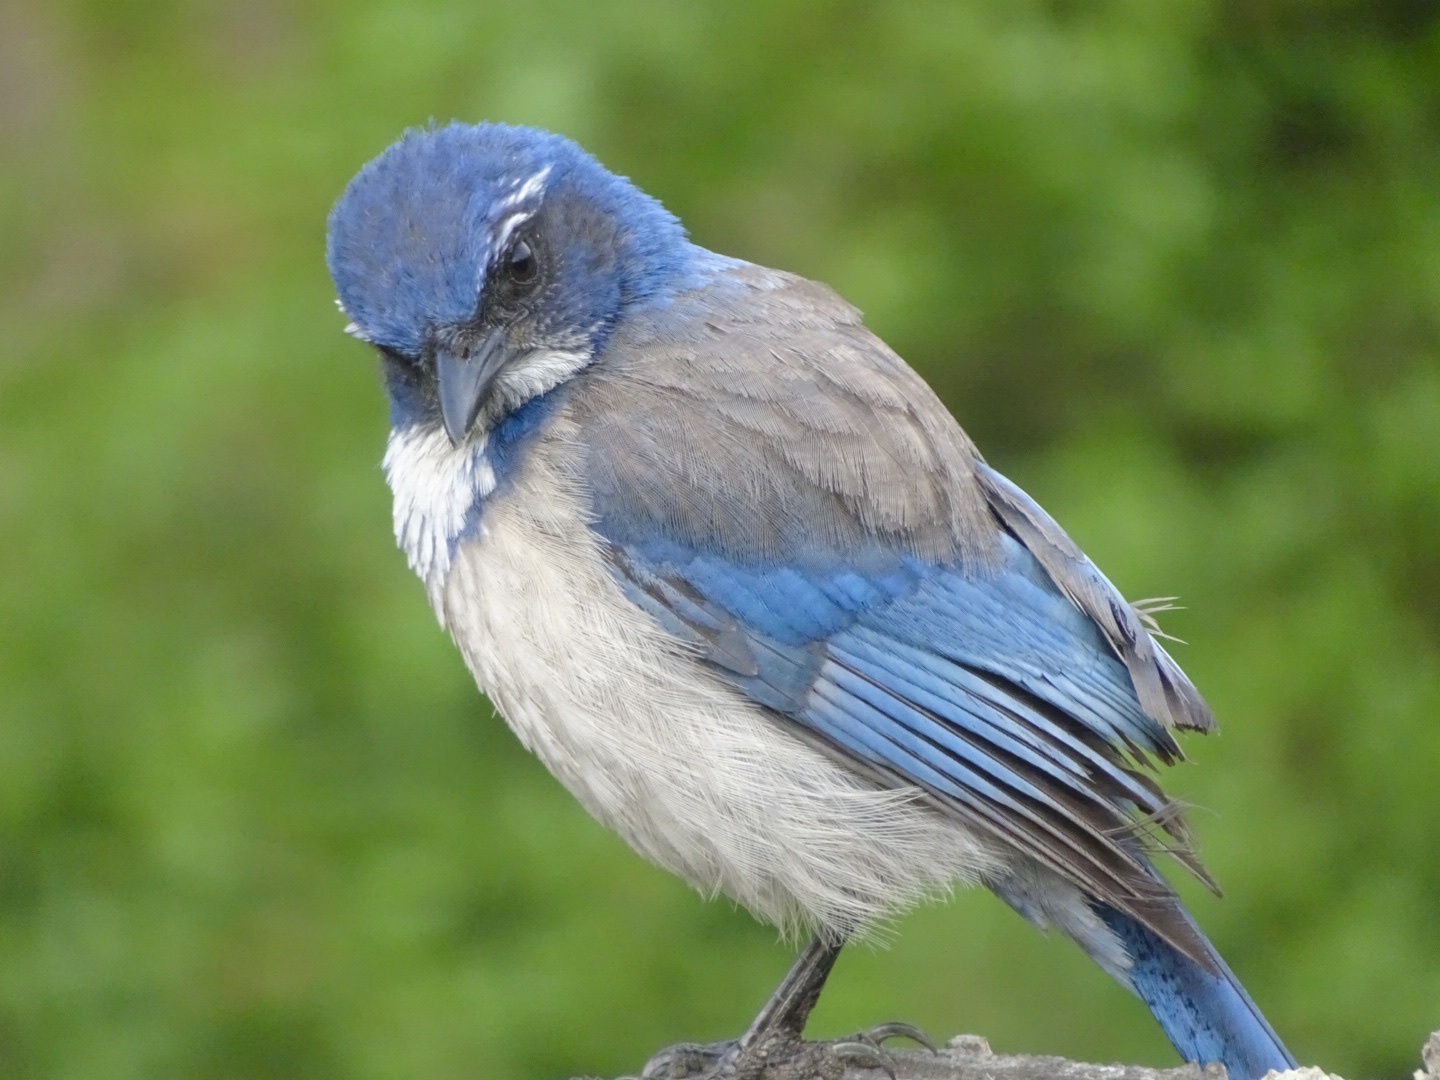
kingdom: Animalia
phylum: Chordata
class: Aves
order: Passeriformes
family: Corvidae
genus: Aphelocoma
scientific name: Aphelocoma californica
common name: California scrub-jay
